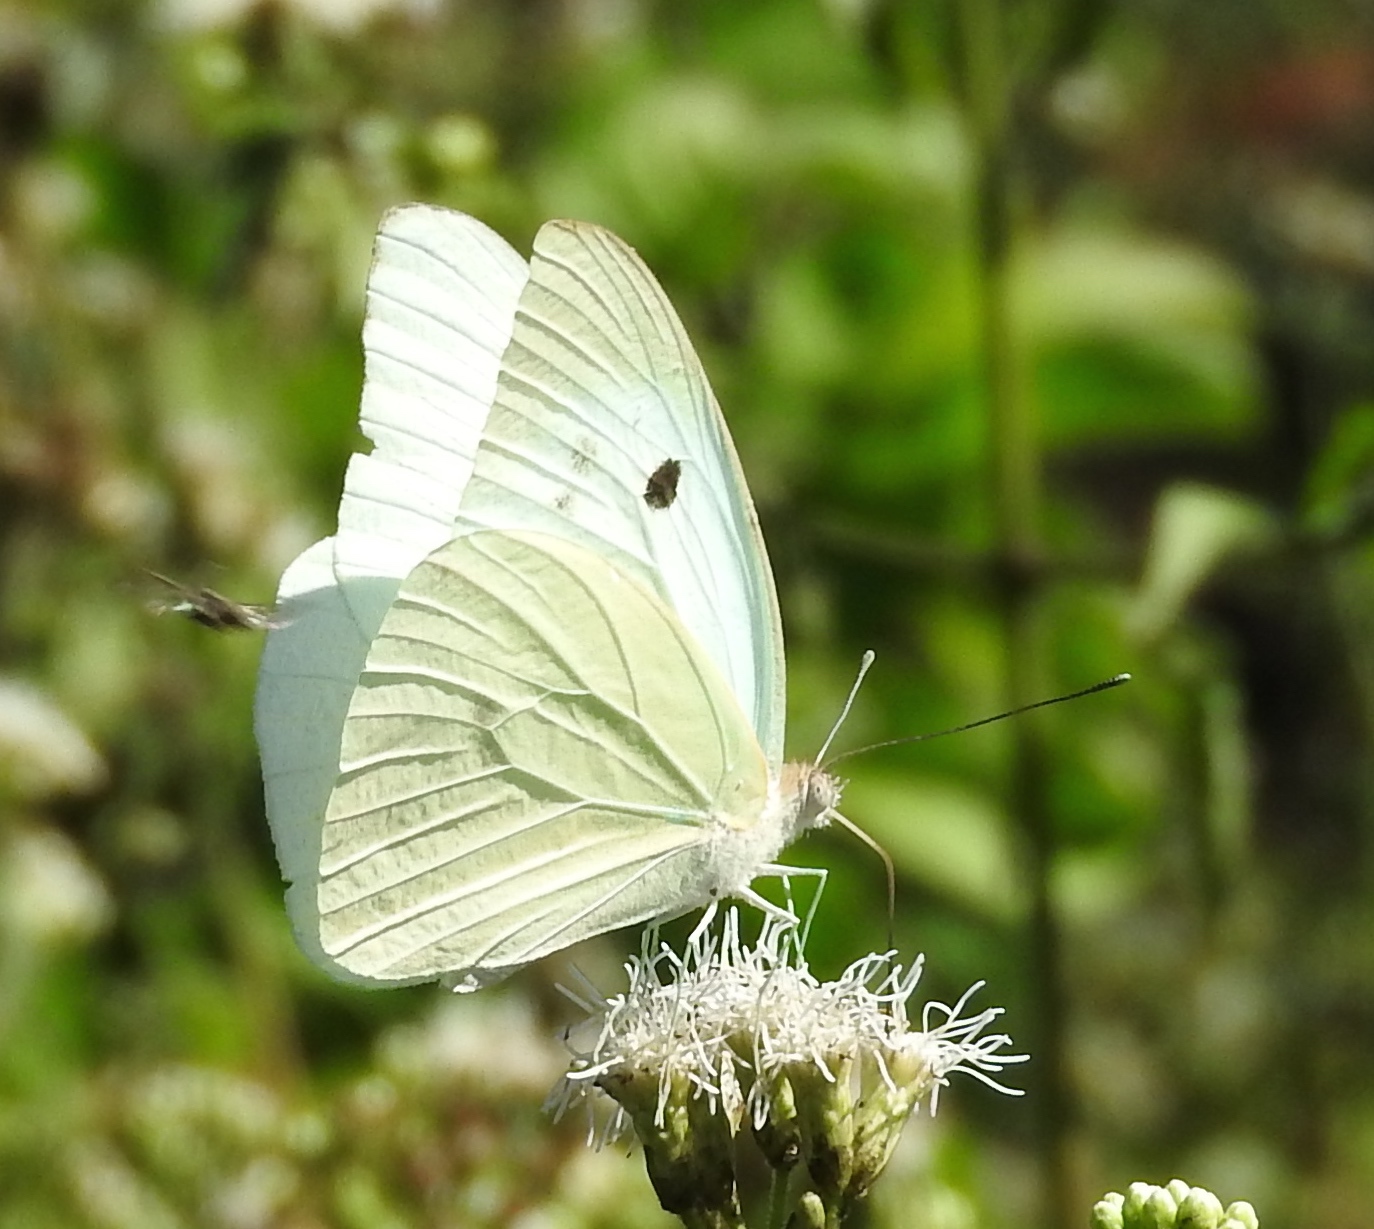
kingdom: Animalia
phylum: Arthropoda
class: Insecta
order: Lepidoptera
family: Pieridae
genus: Ganyra
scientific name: Ganyra josephina
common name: Giant white
